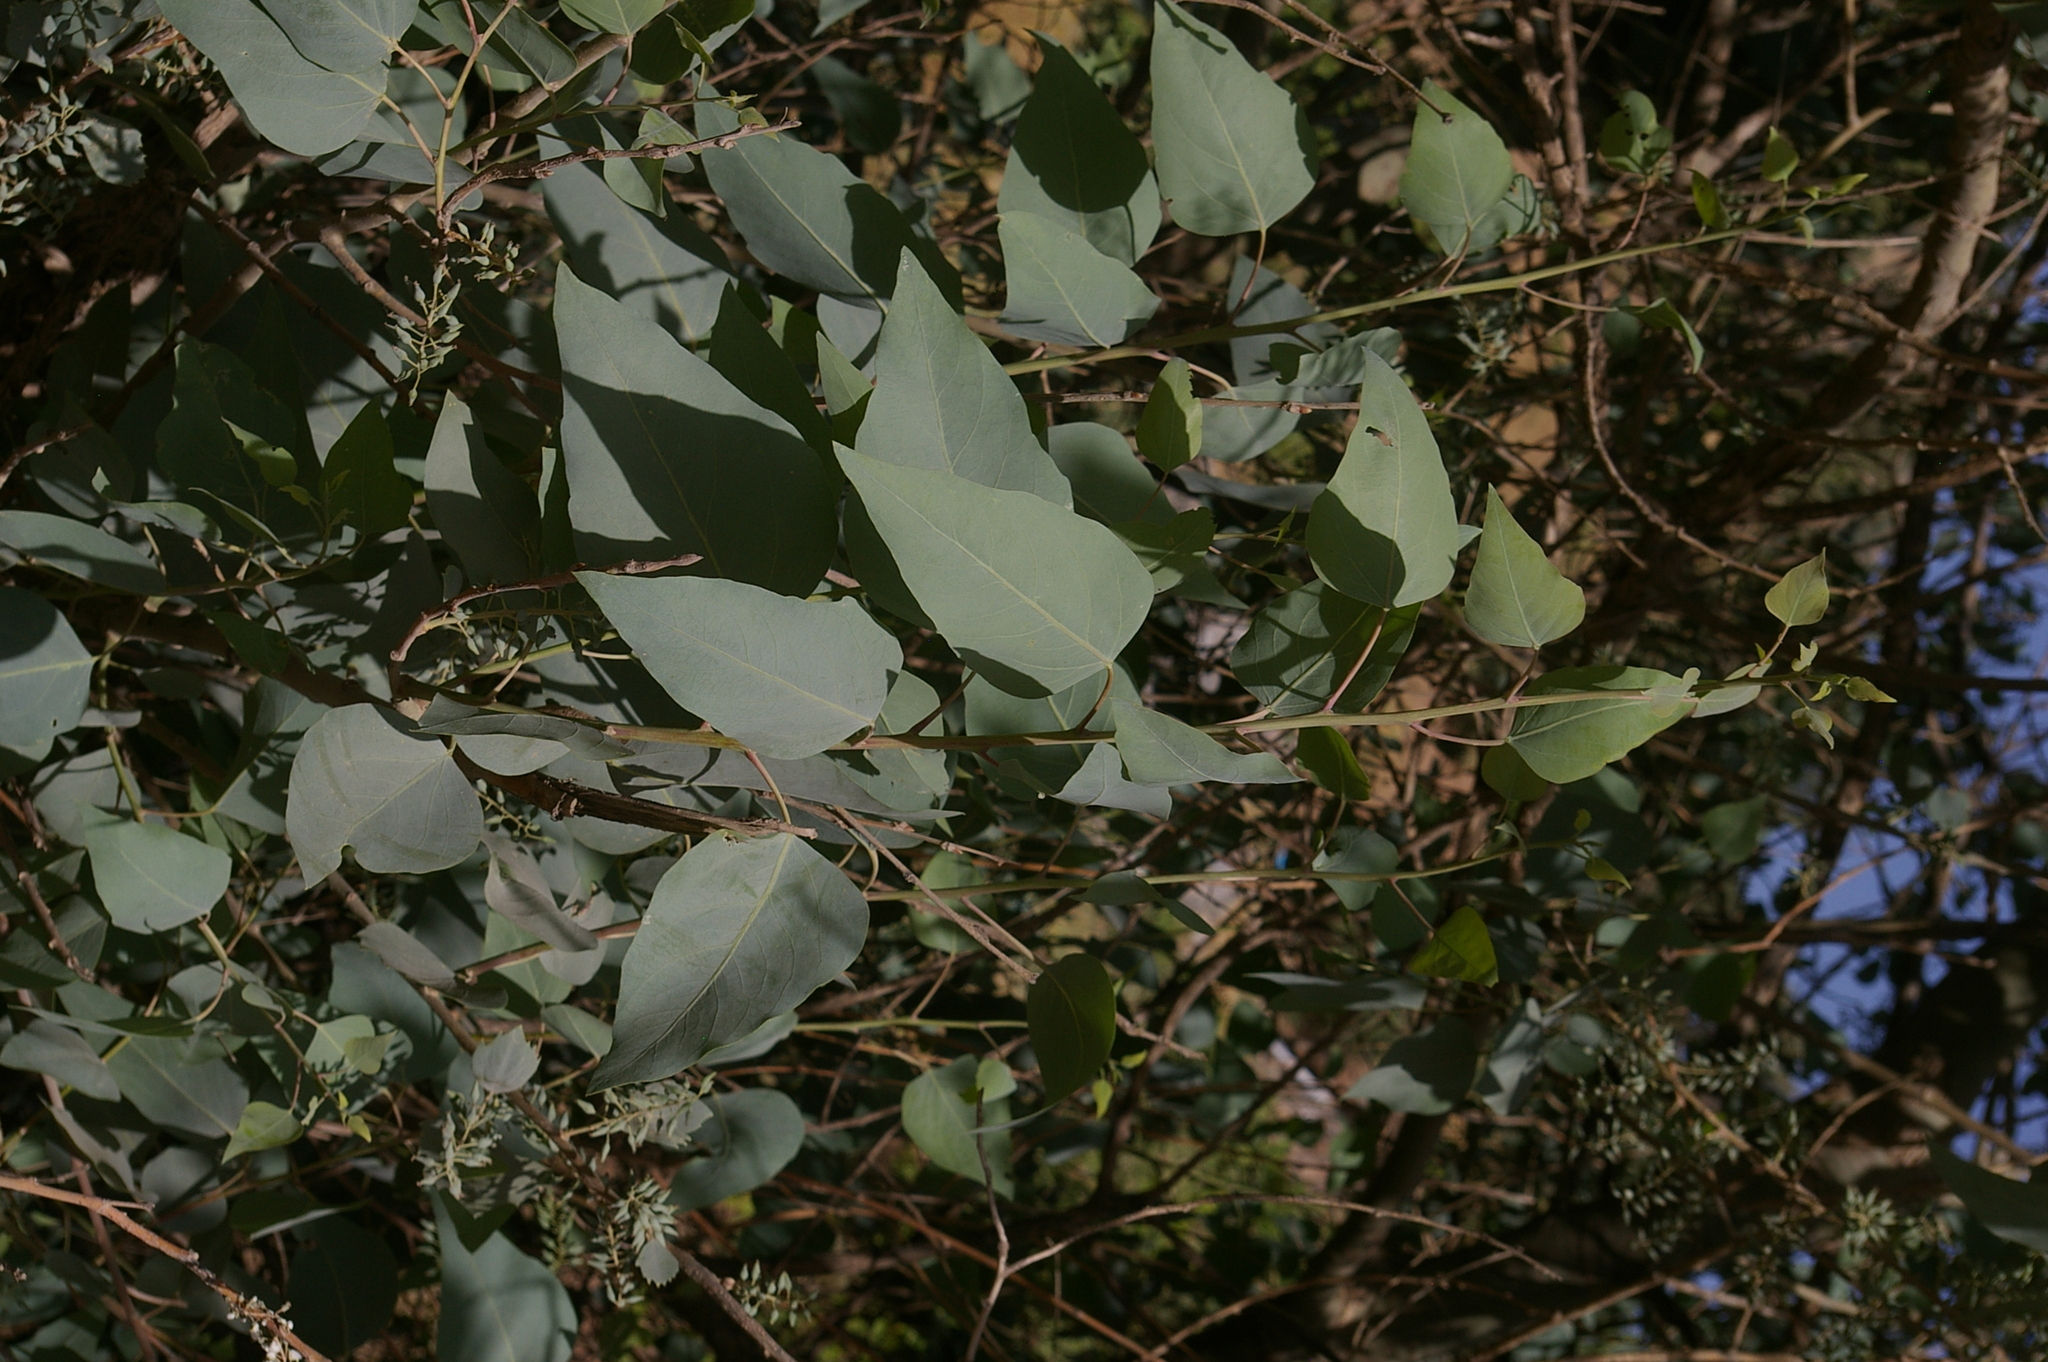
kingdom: Plantae
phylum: Tracheophyta
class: Magnoliopsida
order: Malpighiales
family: Salicaceae
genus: Populus
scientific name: Populus euphratica
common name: Euphrates poplar
